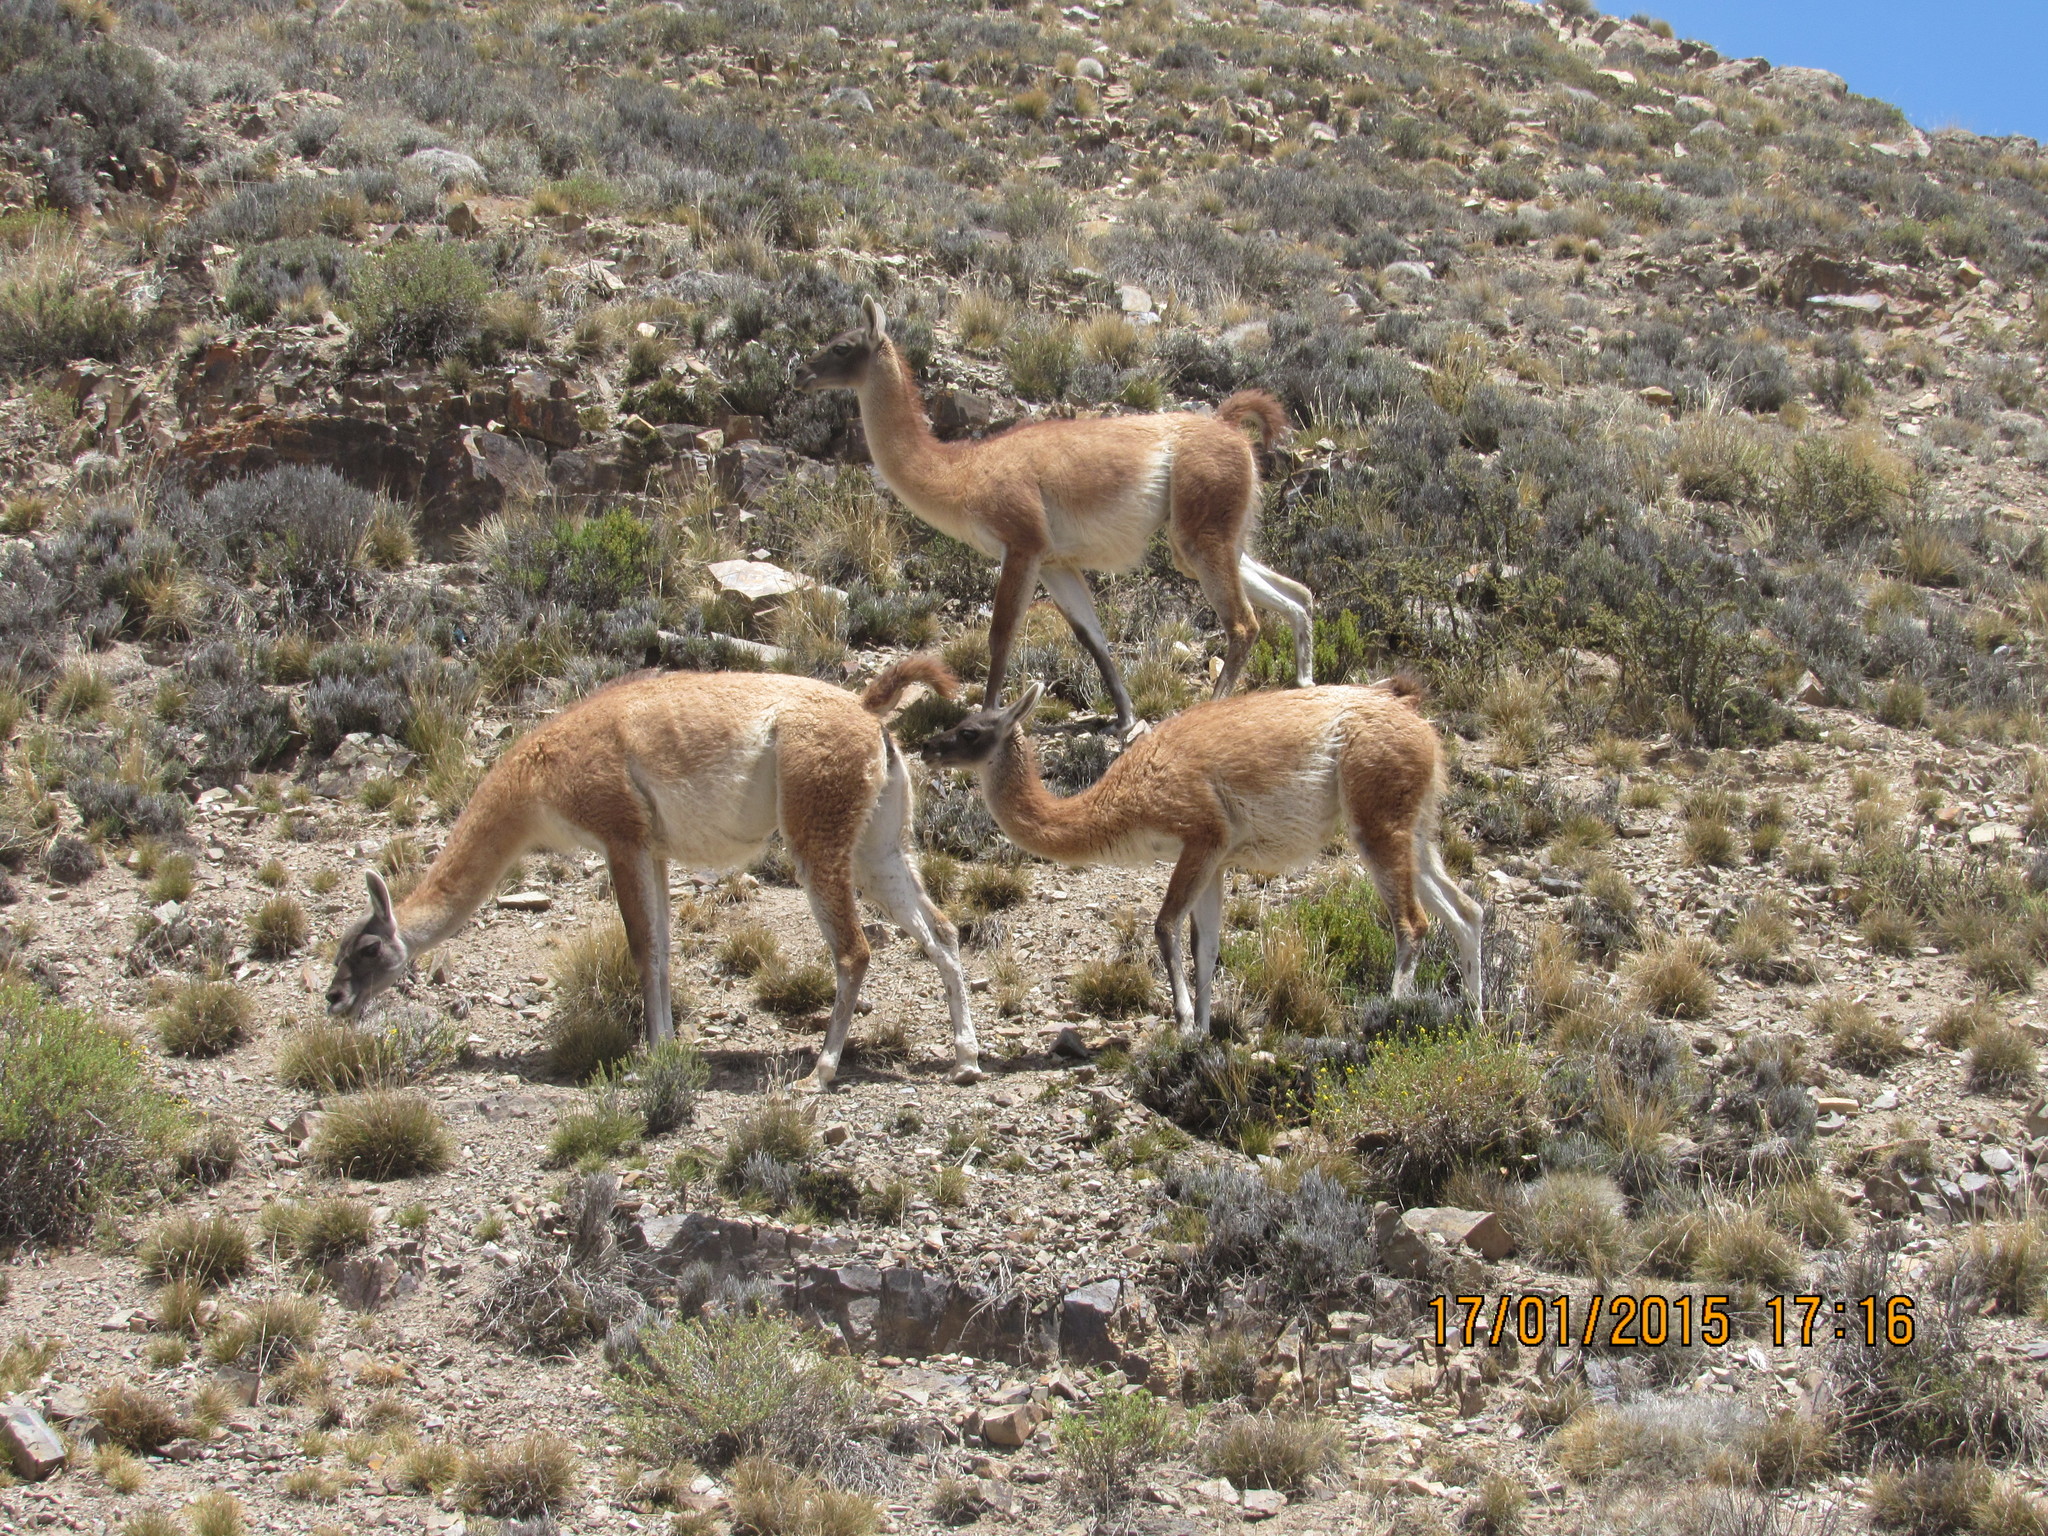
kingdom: Animalia
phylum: Chordata
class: Mammalia
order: Artiodactyla
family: Camelidae
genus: Lama
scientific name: Lama glama
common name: Llama
